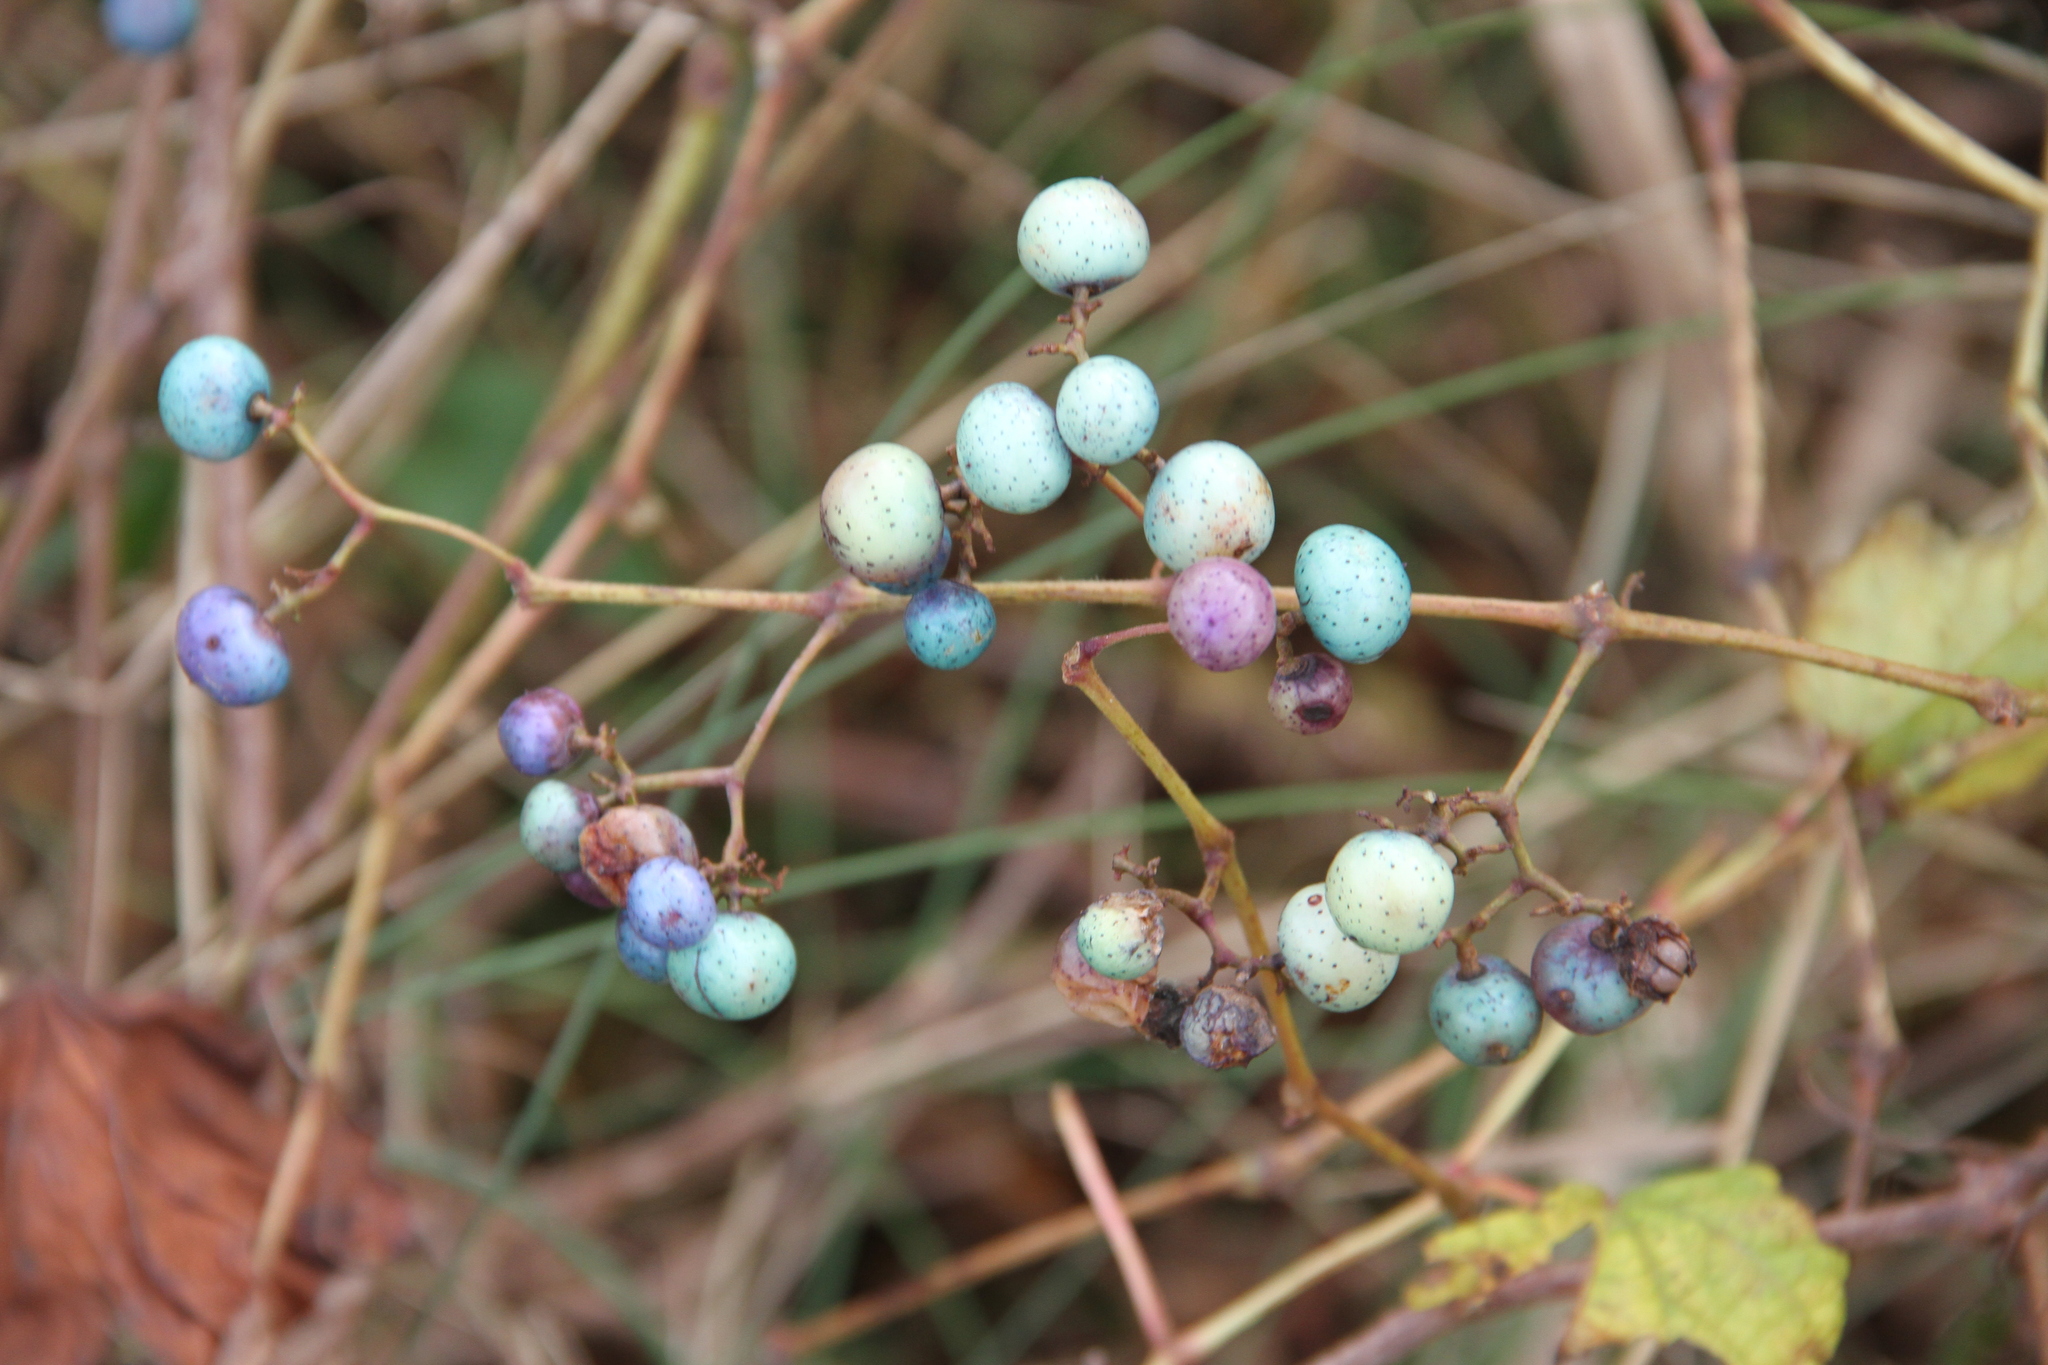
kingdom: Plantae
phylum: Tracheophyta
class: Magnoliopsida
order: Vitales
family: Vitaceae
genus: Ampelopsis
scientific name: Ampelopsis glandulosa
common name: Amur peppervine
